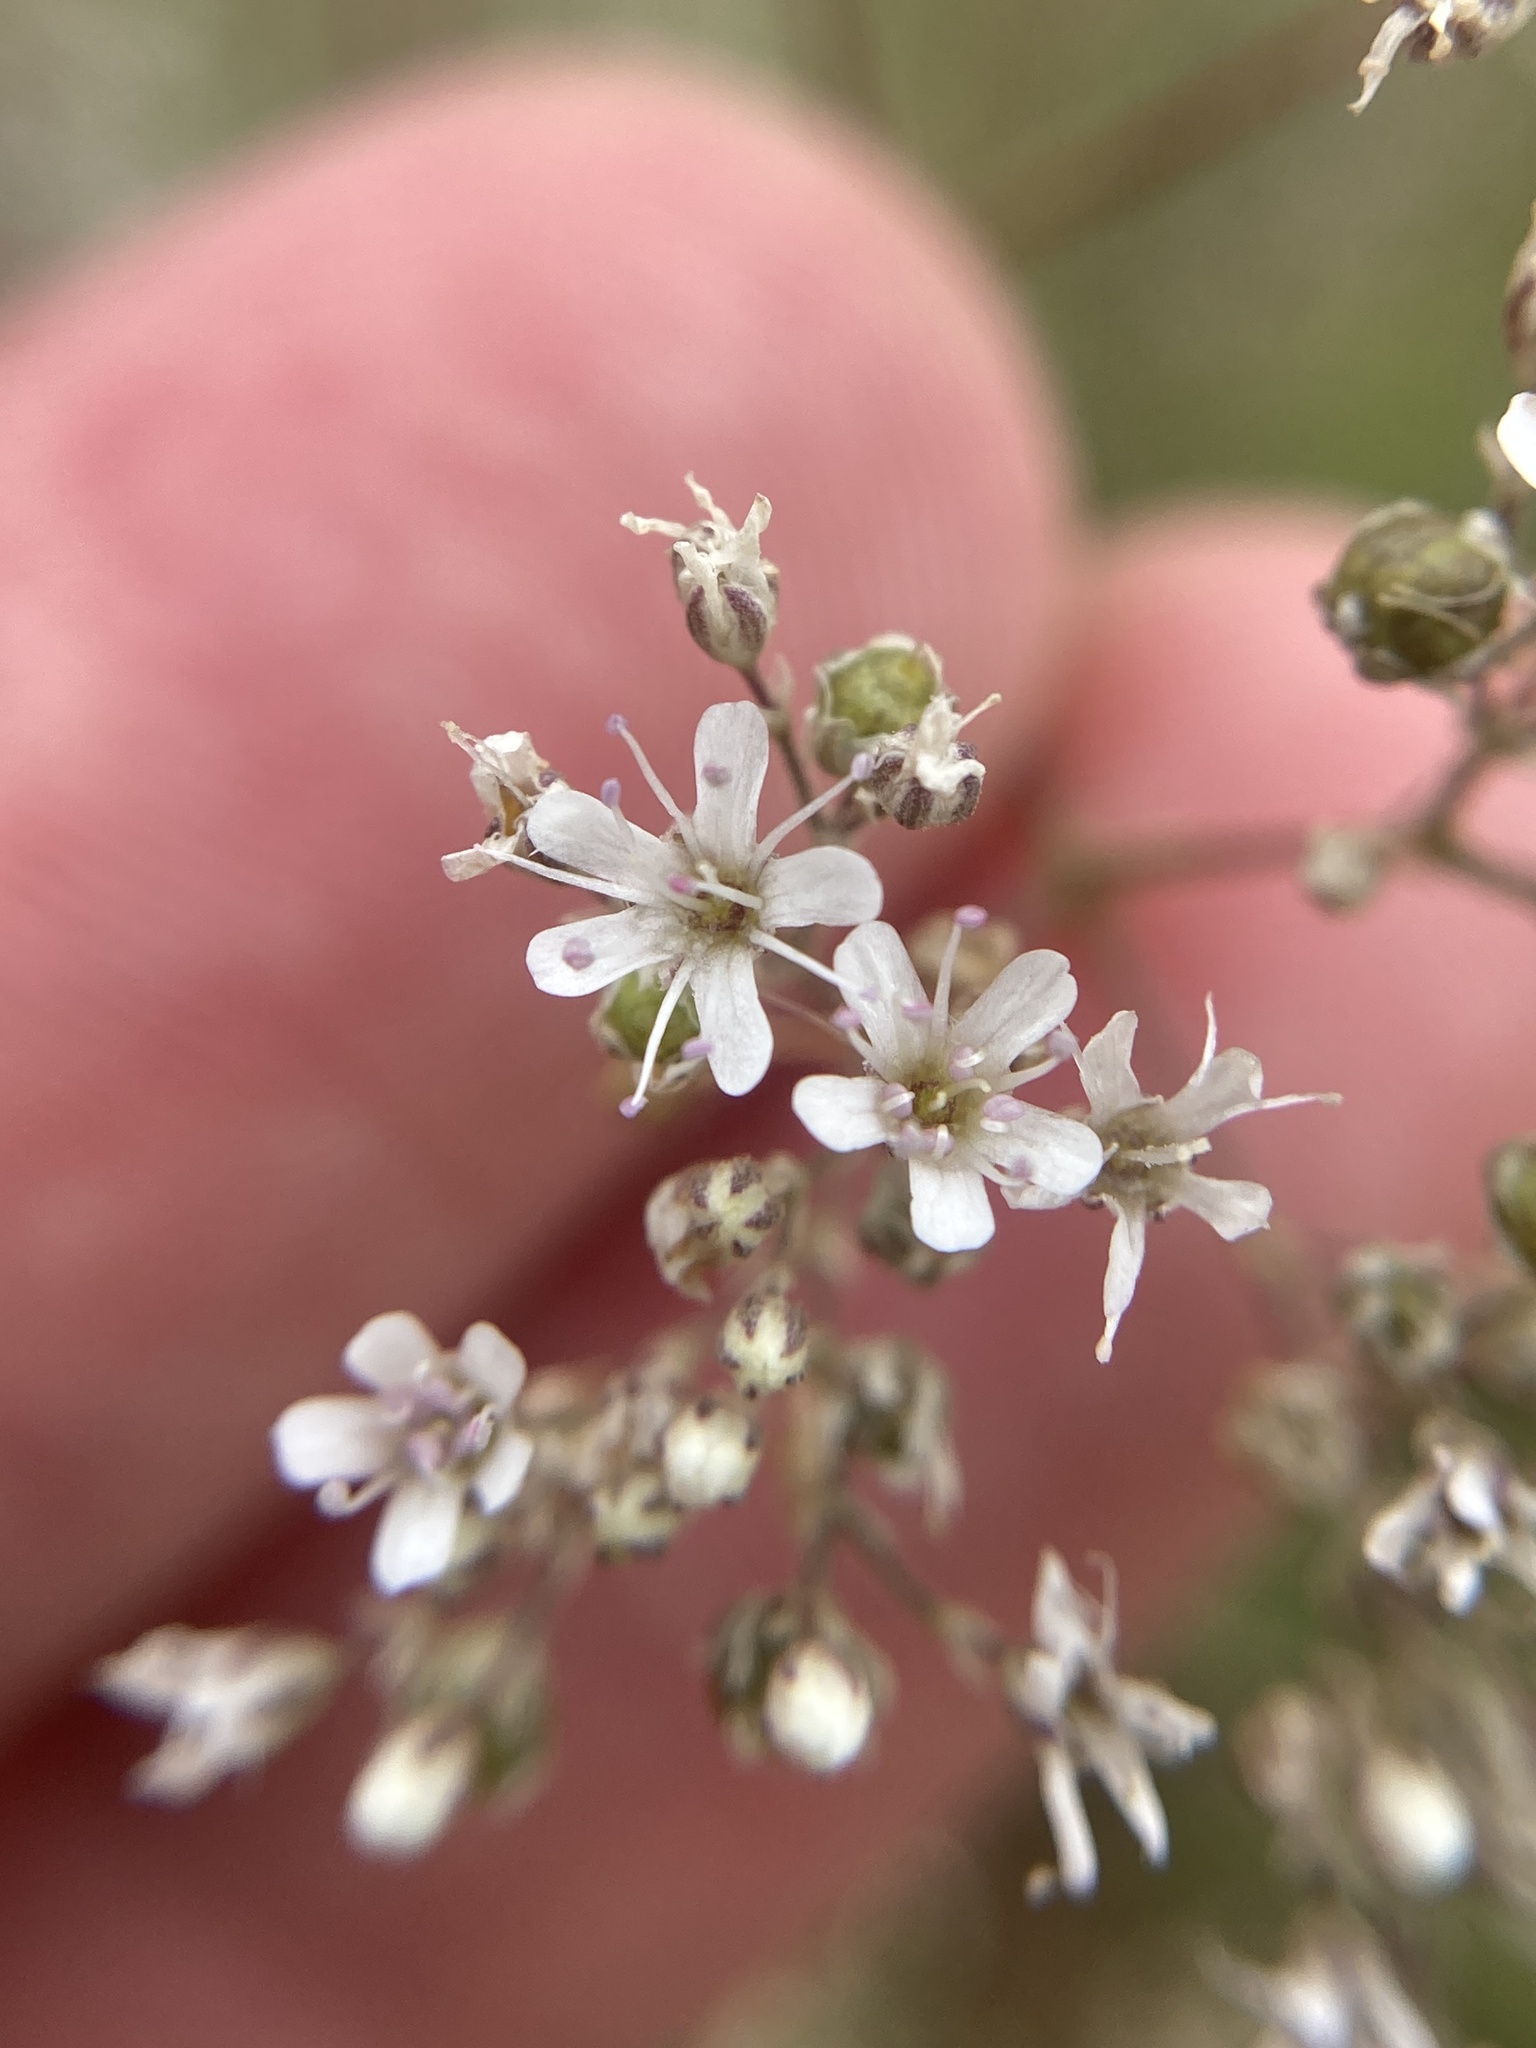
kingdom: Plantae
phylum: Tracheophyta
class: Magnoliopsida
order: Caryophyllales
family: Caryophyllaceae
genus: Gypsophila
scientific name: Gypsophila altissima
